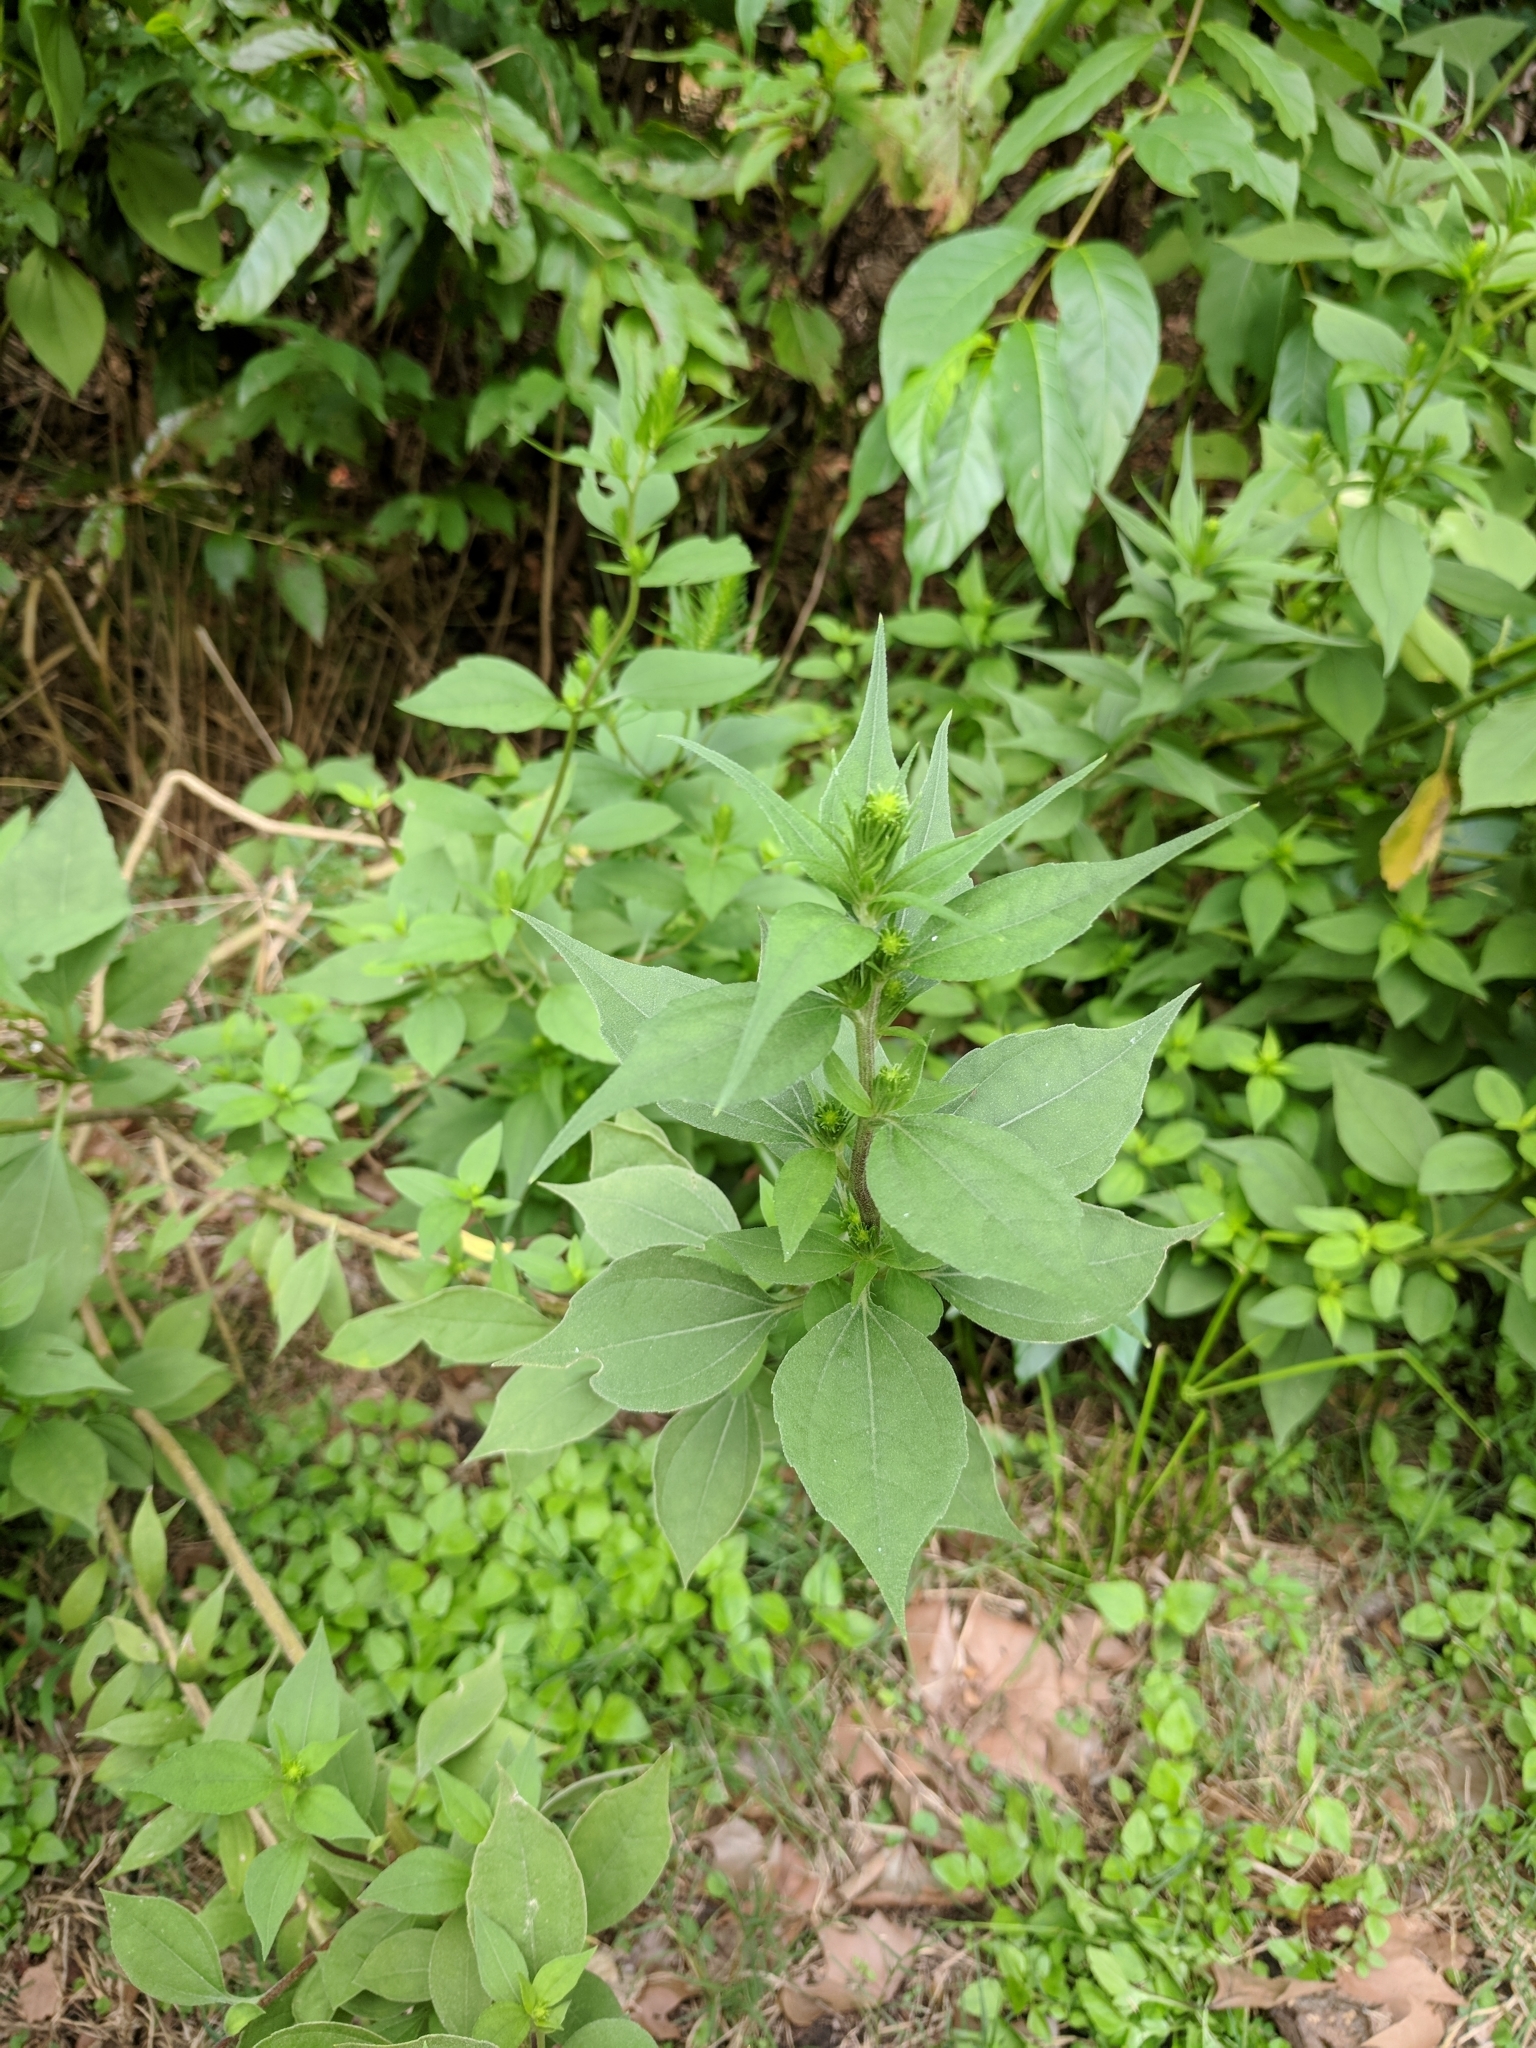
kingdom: Plantae
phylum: Tracheophyta
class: Magnoliopsida
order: Asterales
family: Asteraceae
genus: Iva
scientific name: Iva annua
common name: Marsh-elder
